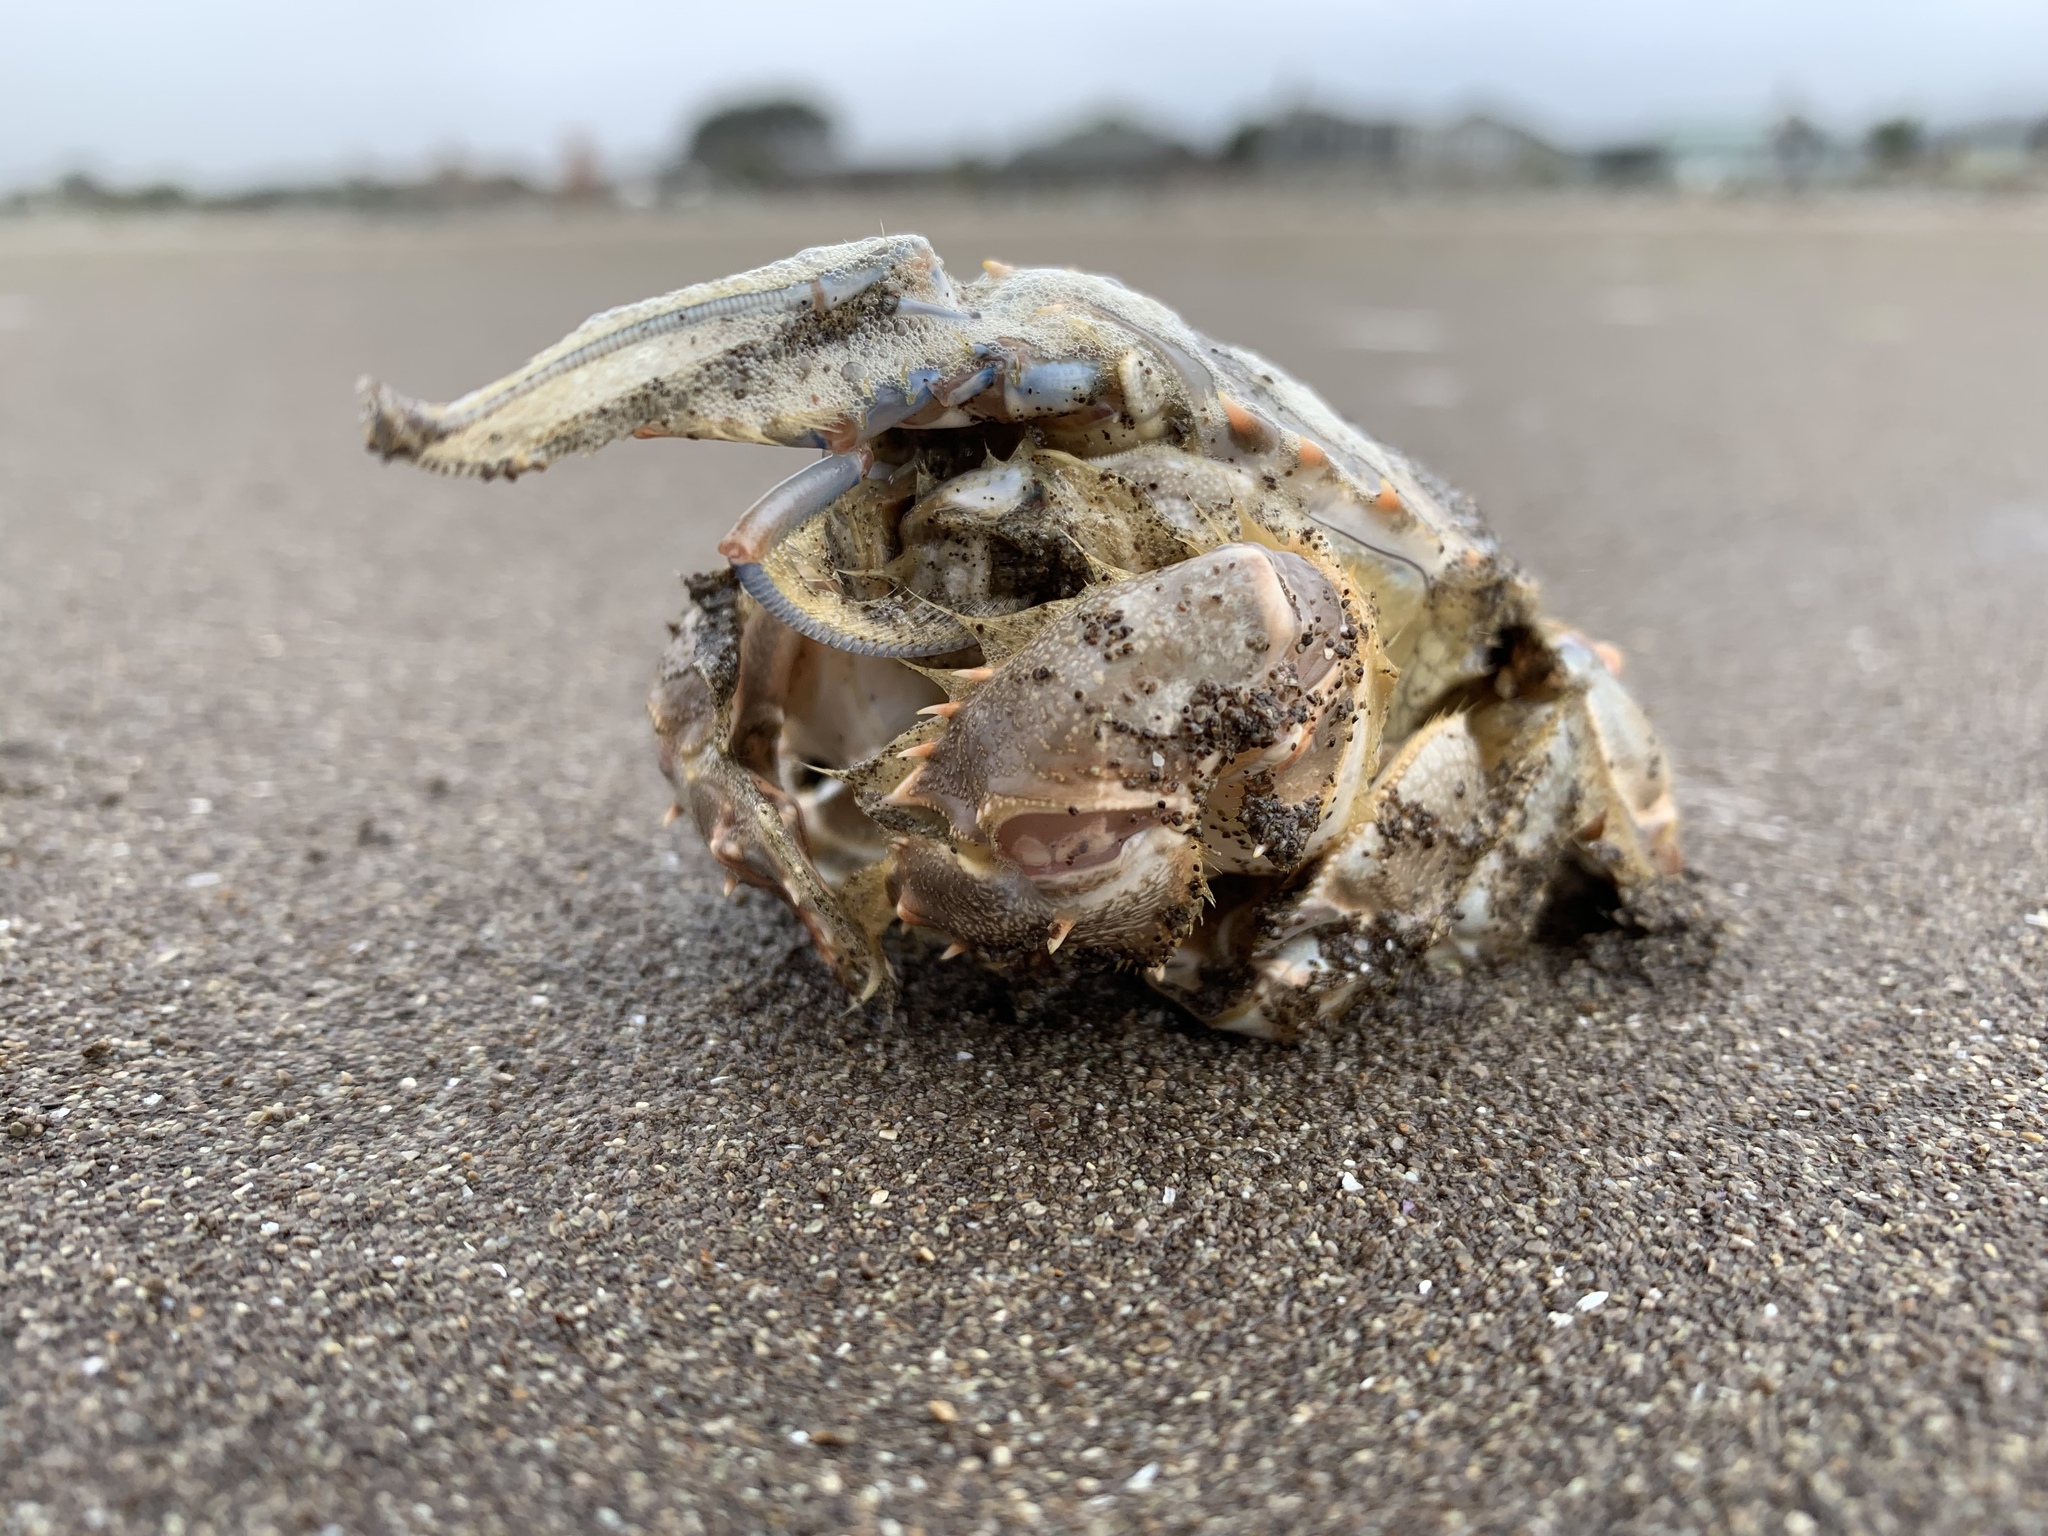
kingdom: Animalia
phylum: Arthropoda
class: Malacostraca
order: Decapoda
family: Blepharipodidae
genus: Blepharipoda
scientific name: Blepharipoda occidentalis
